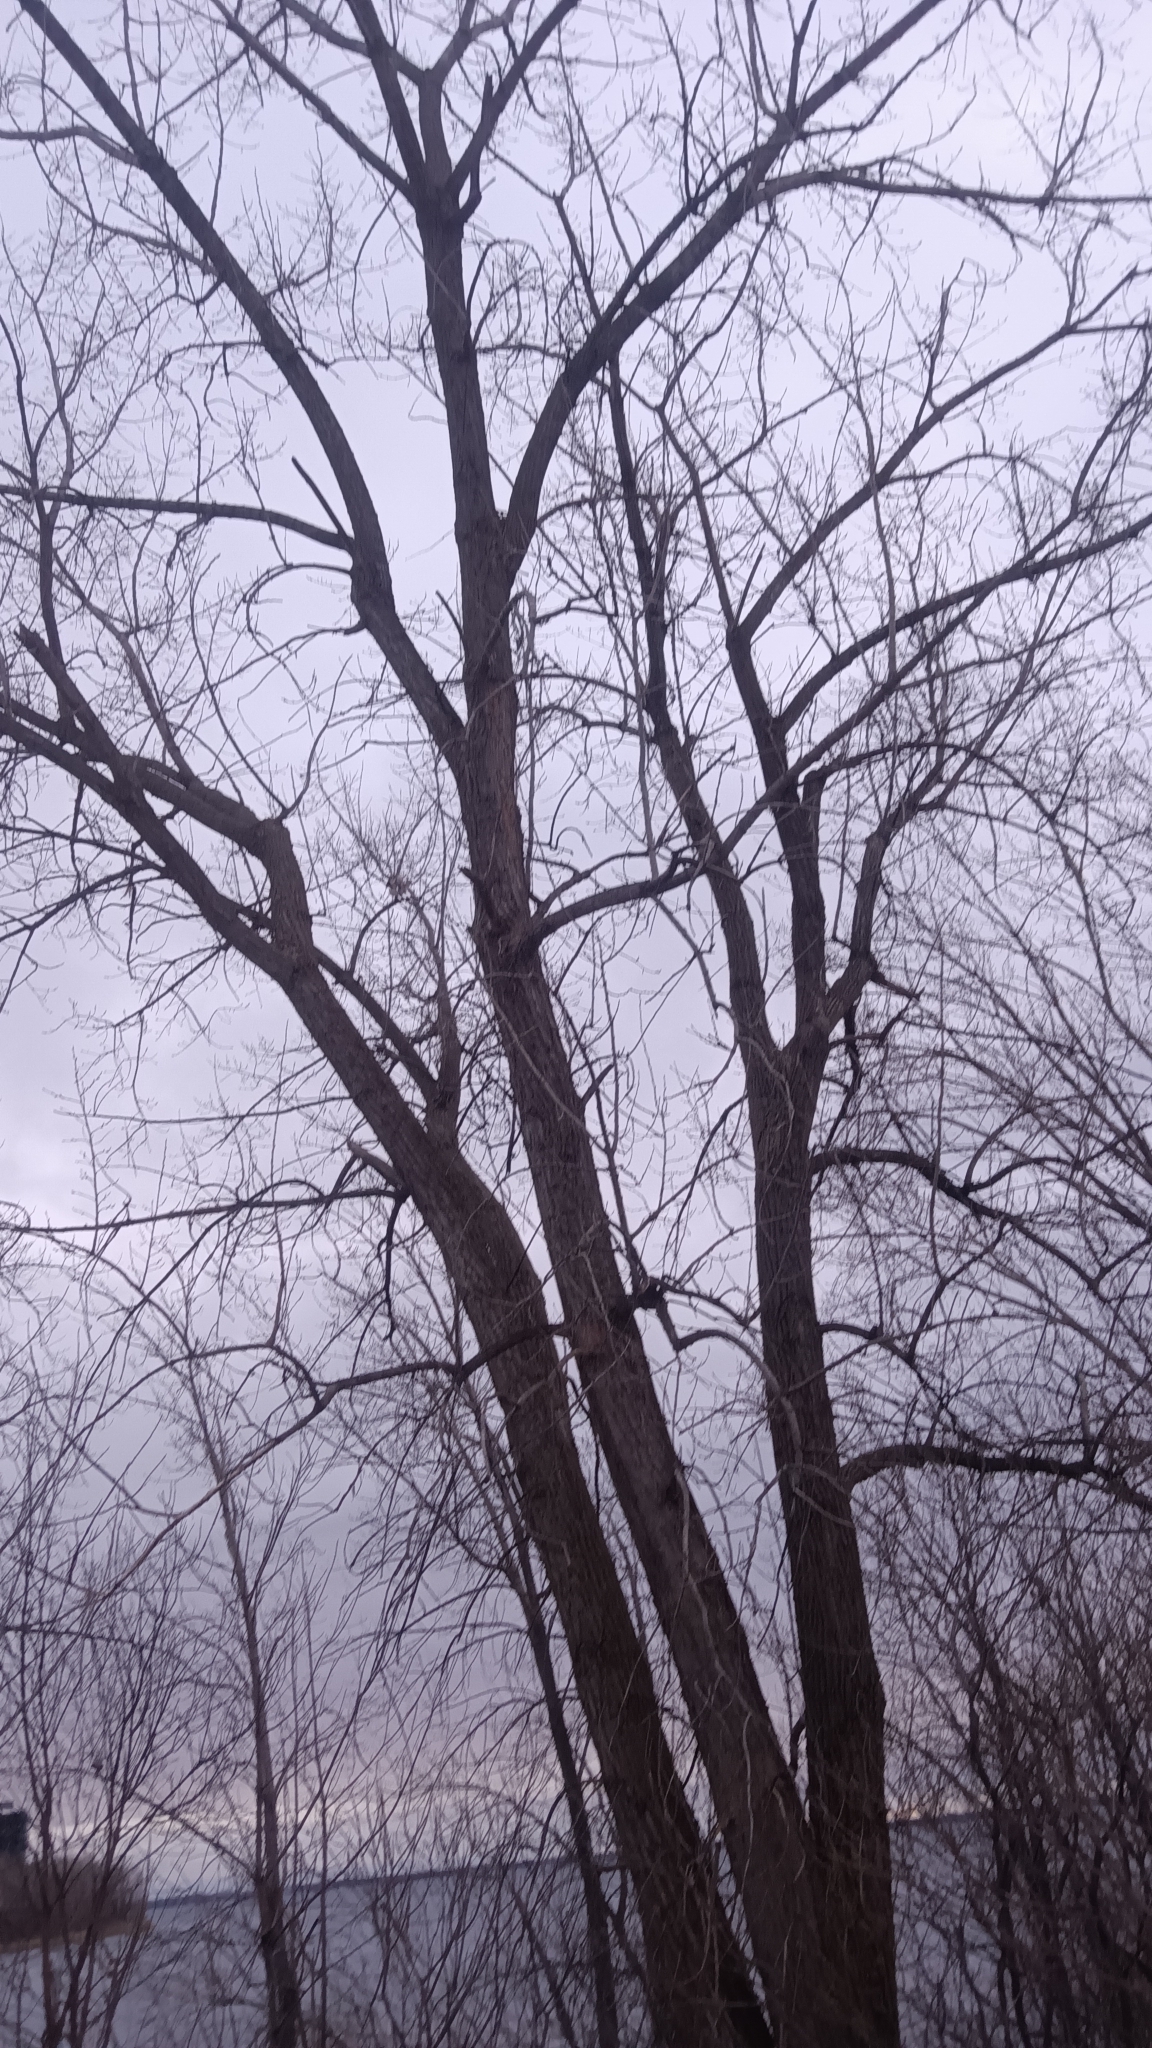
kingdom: Plantae
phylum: Tracheophyta
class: Magnoliopsida
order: Malpighiales
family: Salicaceae
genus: Populus
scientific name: Populus deltoides
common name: Eastern cottonwood
